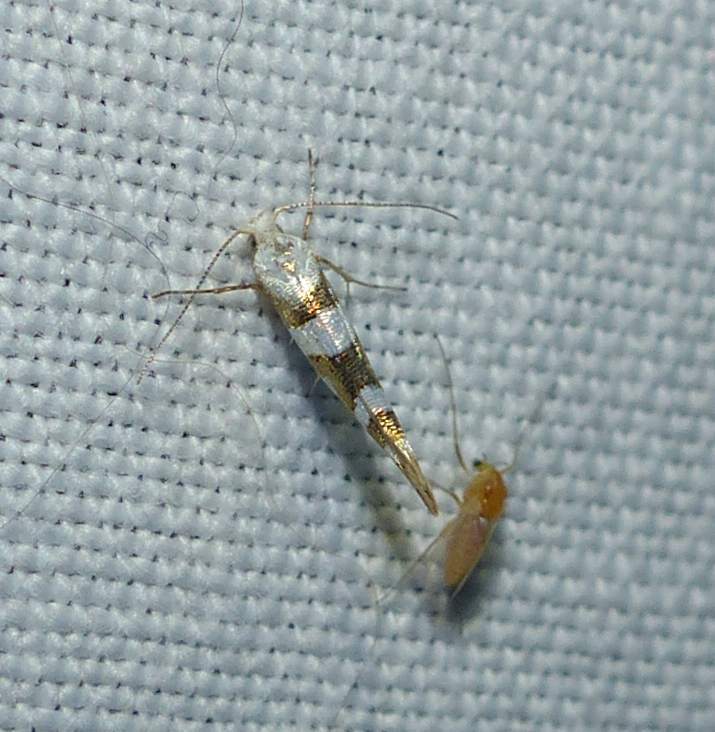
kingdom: Animalia
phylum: Arthropoda
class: Insecta
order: Lepidoptera
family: Argyresthiidae
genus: Argyresthia
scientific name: Argyresthia calliphanes
